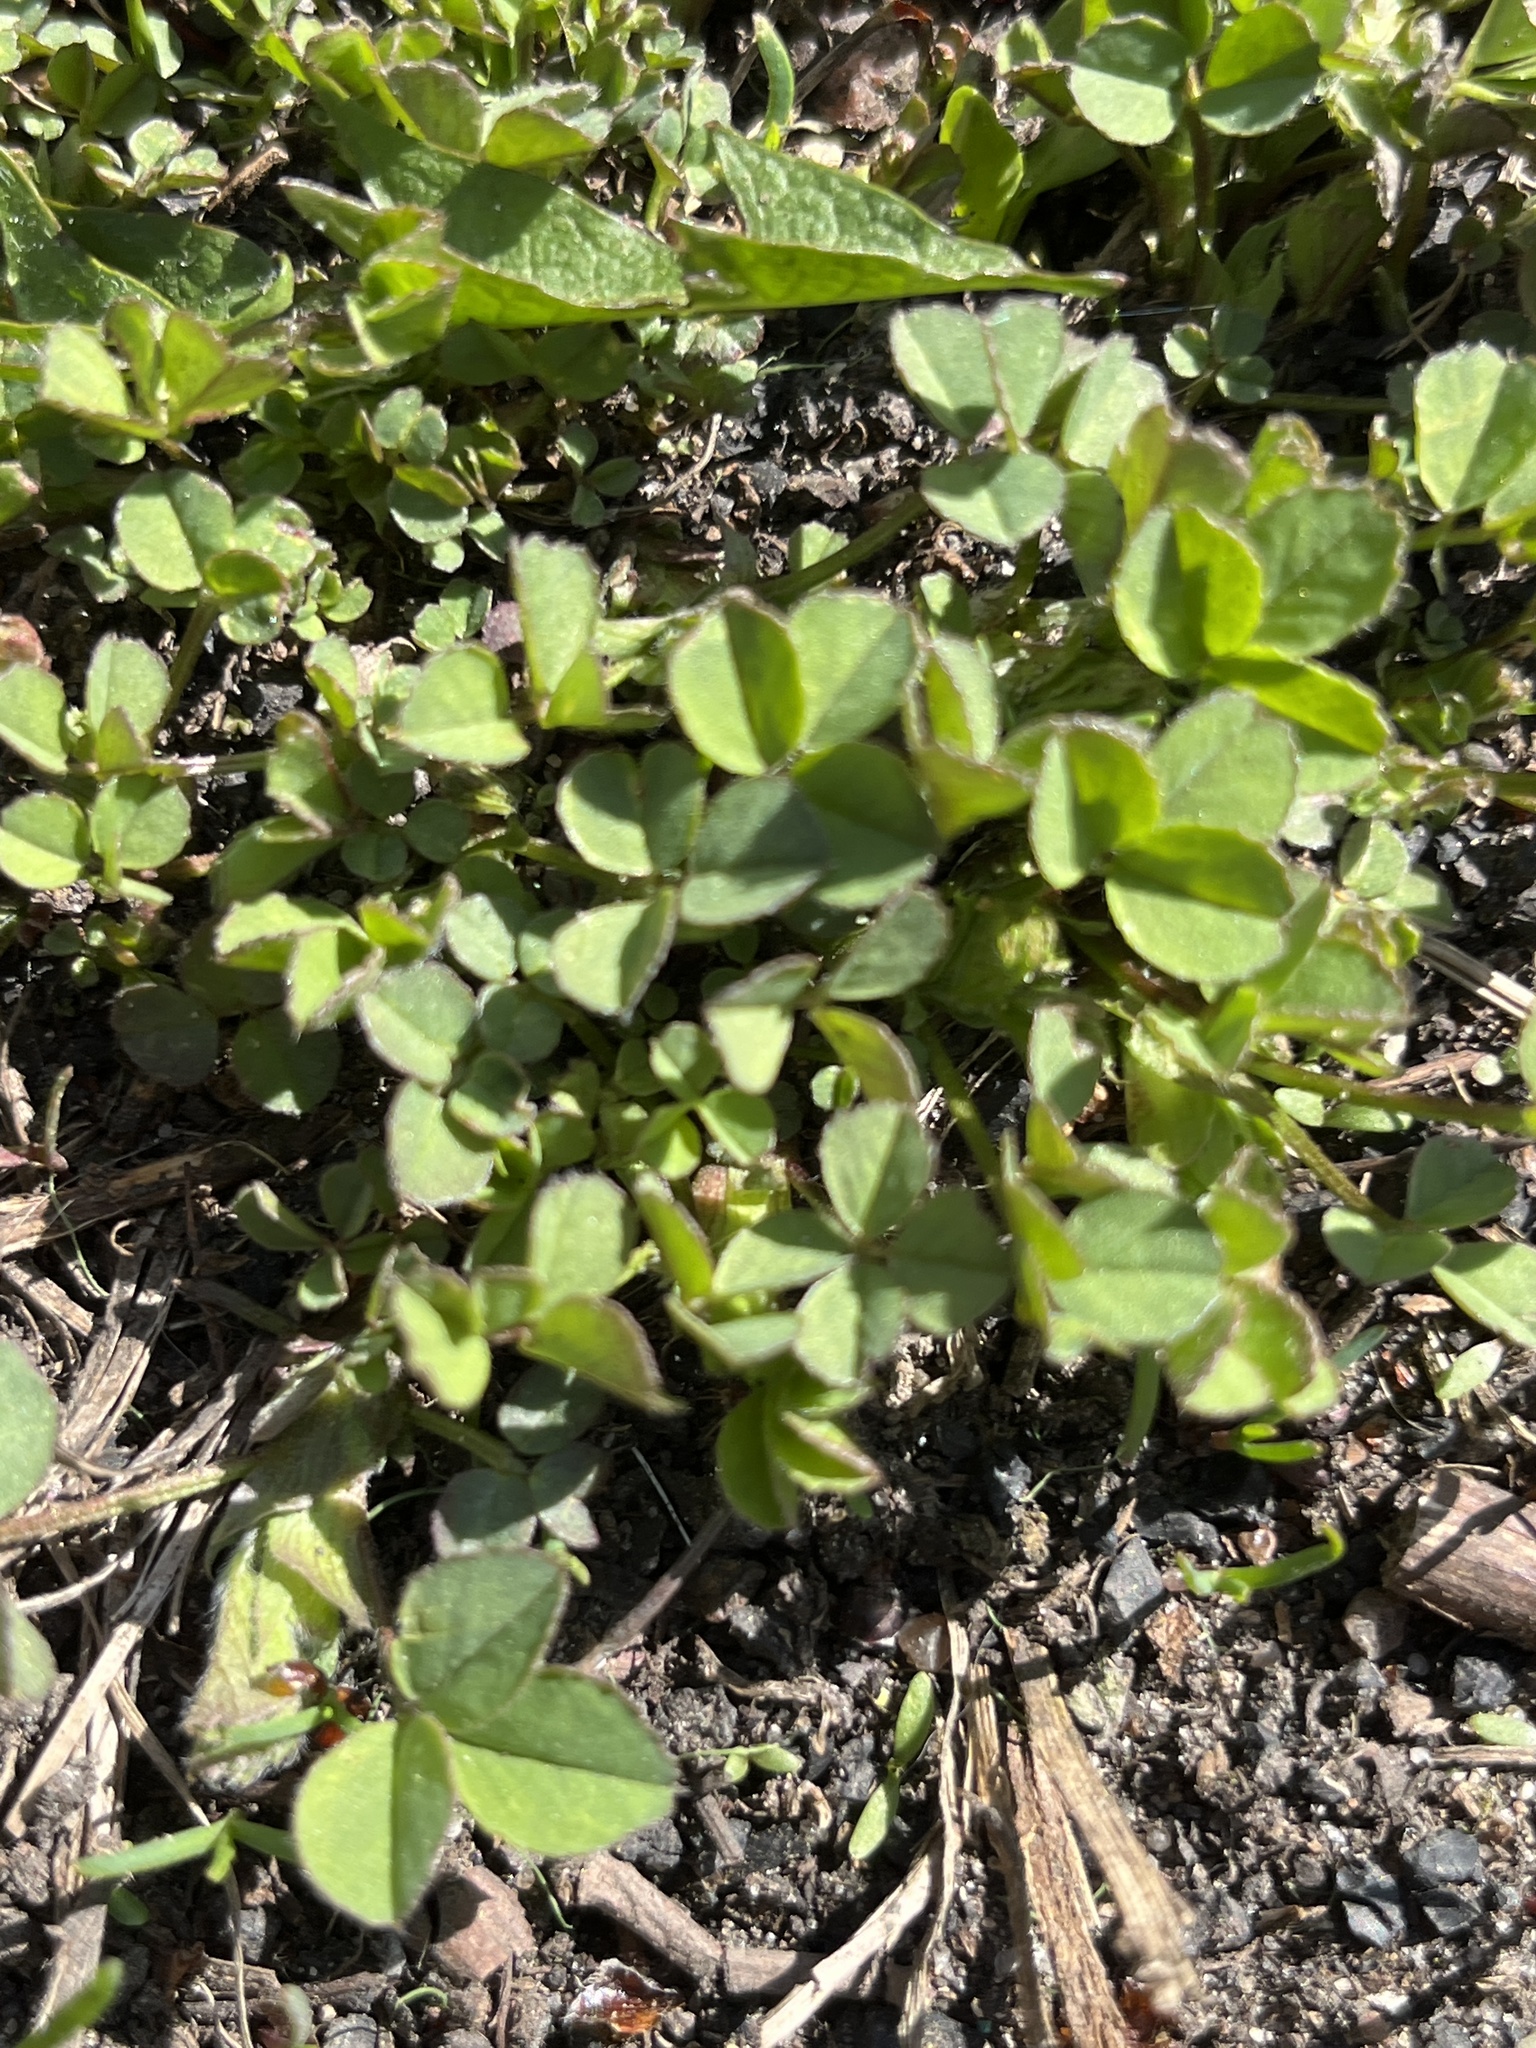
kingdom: Plantae
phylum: Tracheophyta
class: Magnoliopsida
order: Fabales
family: Fabaceae
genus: Medicago
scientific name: Medicago lupulina
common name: Black medick
